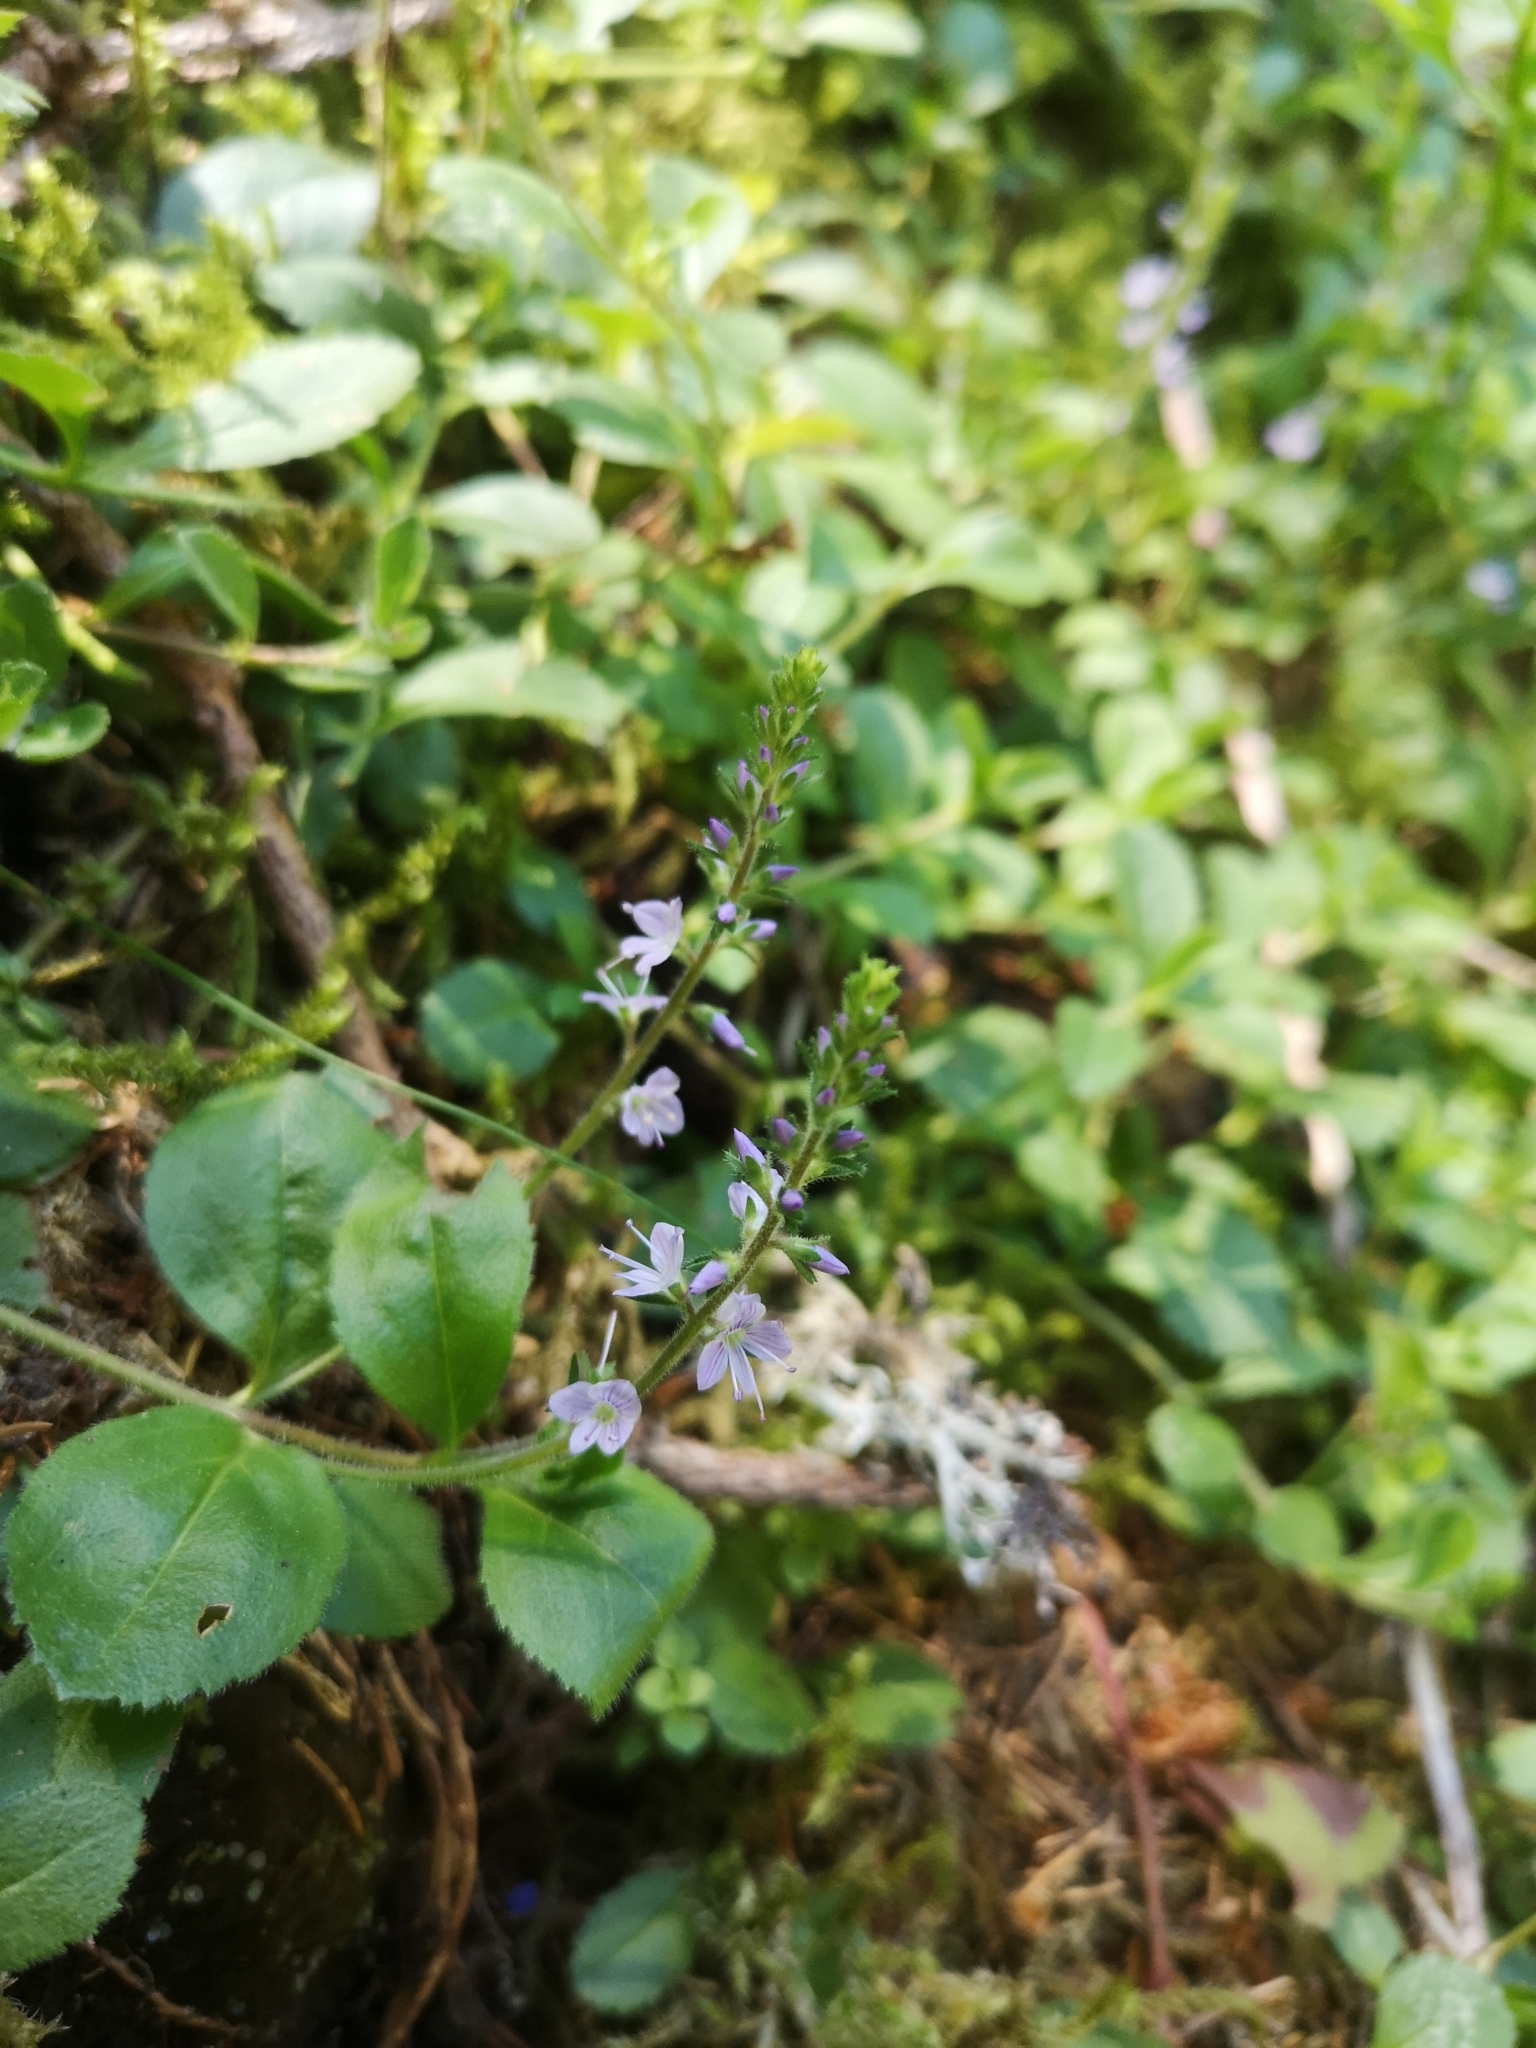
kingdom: Plantae
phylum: Tracheophyta
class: Magnoliopsida
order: Lamiales
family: Plantaginaceae
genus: Veronica
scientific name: Veronica officinalis
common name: Common speedwell
